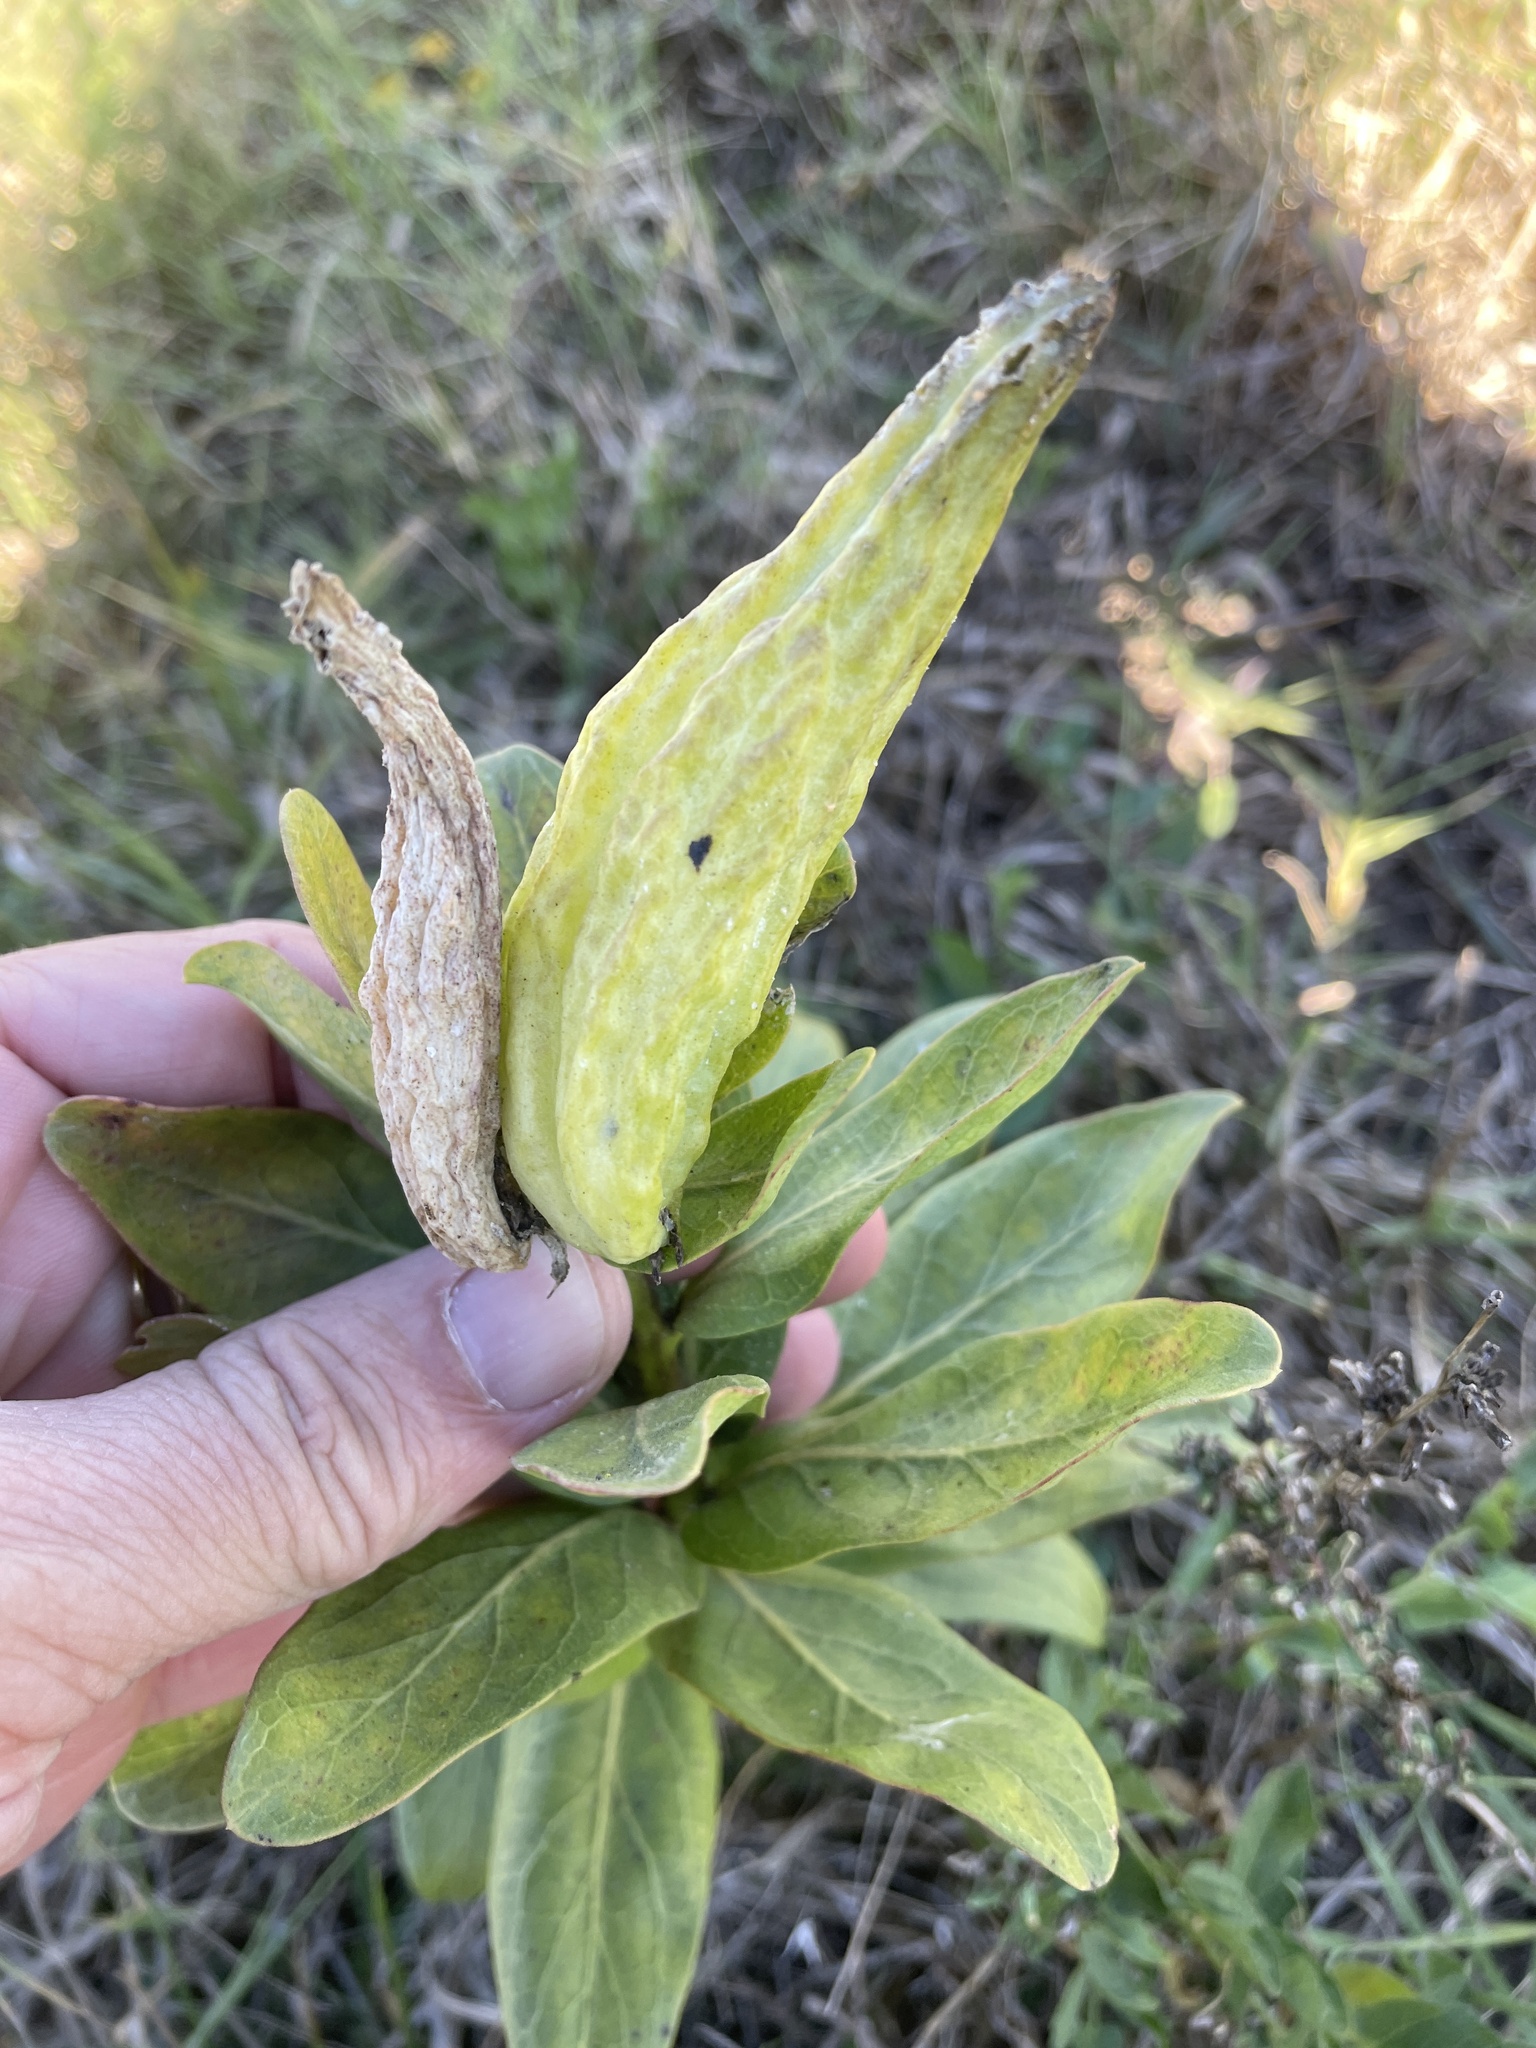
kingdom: Plantae
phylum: Tracheophyta
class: Magnoliopsida
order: Gentianales
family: Apocynaceae
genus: Asclepias
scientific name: Asclepias viridis
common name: Antelope-horns
